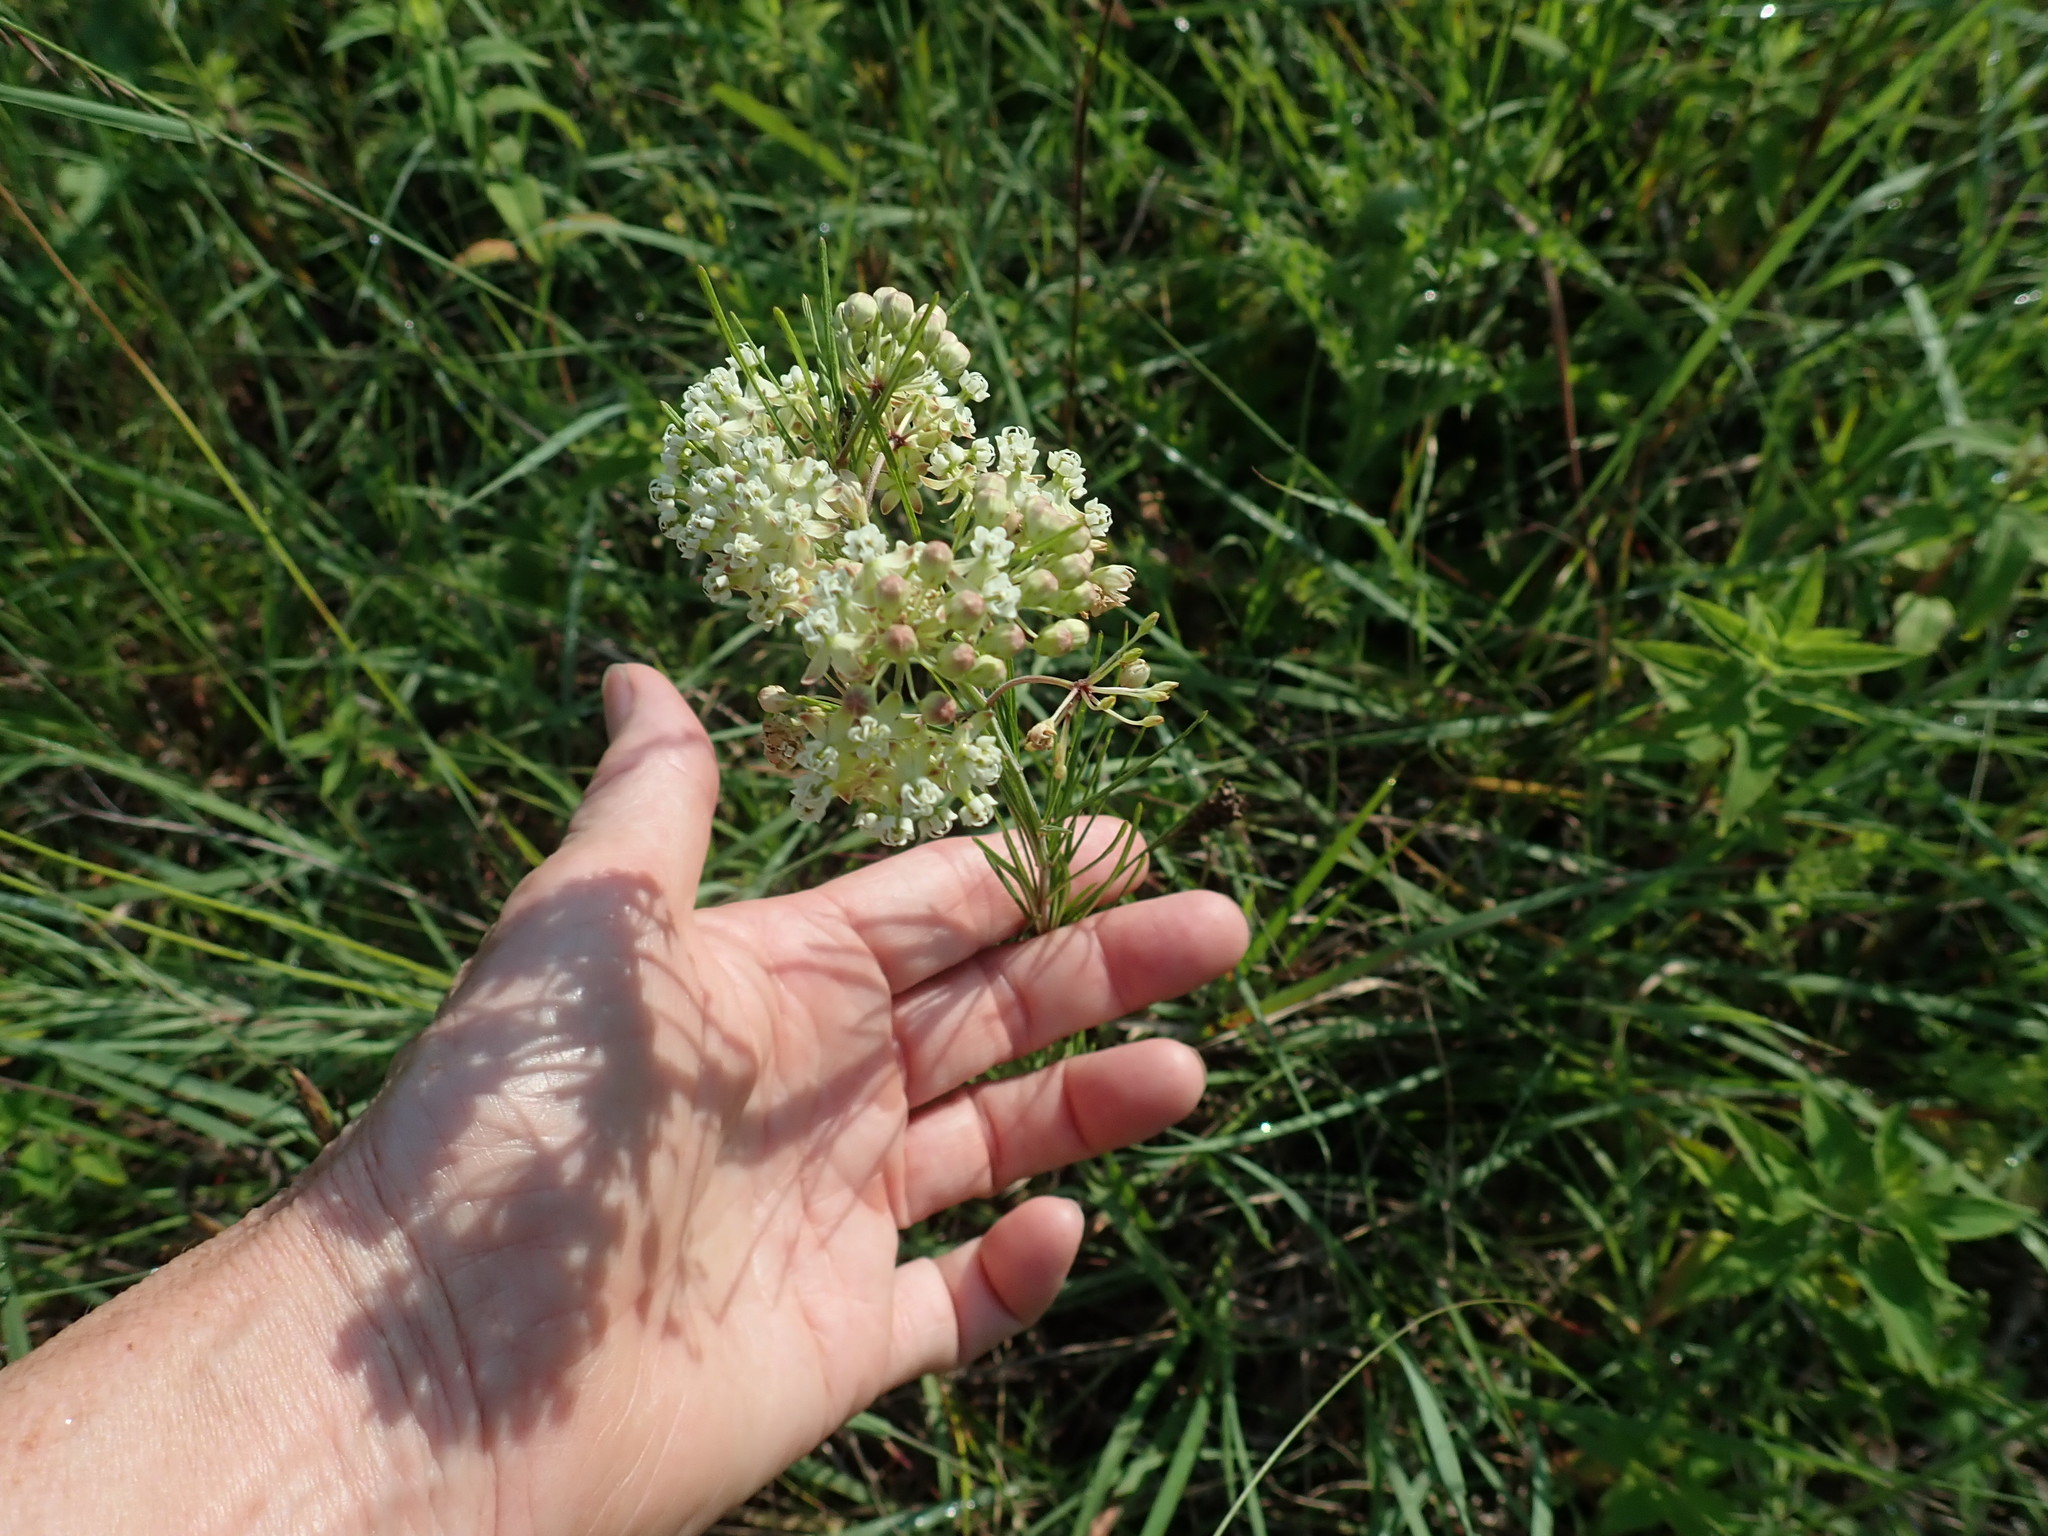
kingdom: Plantae
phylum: Tracheophyta
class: Magnoliopsida
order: Gentianales
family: Apocynaceae
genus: Asclepias
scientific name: Asclepias verticillata
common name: Eastern whorled milkweed
